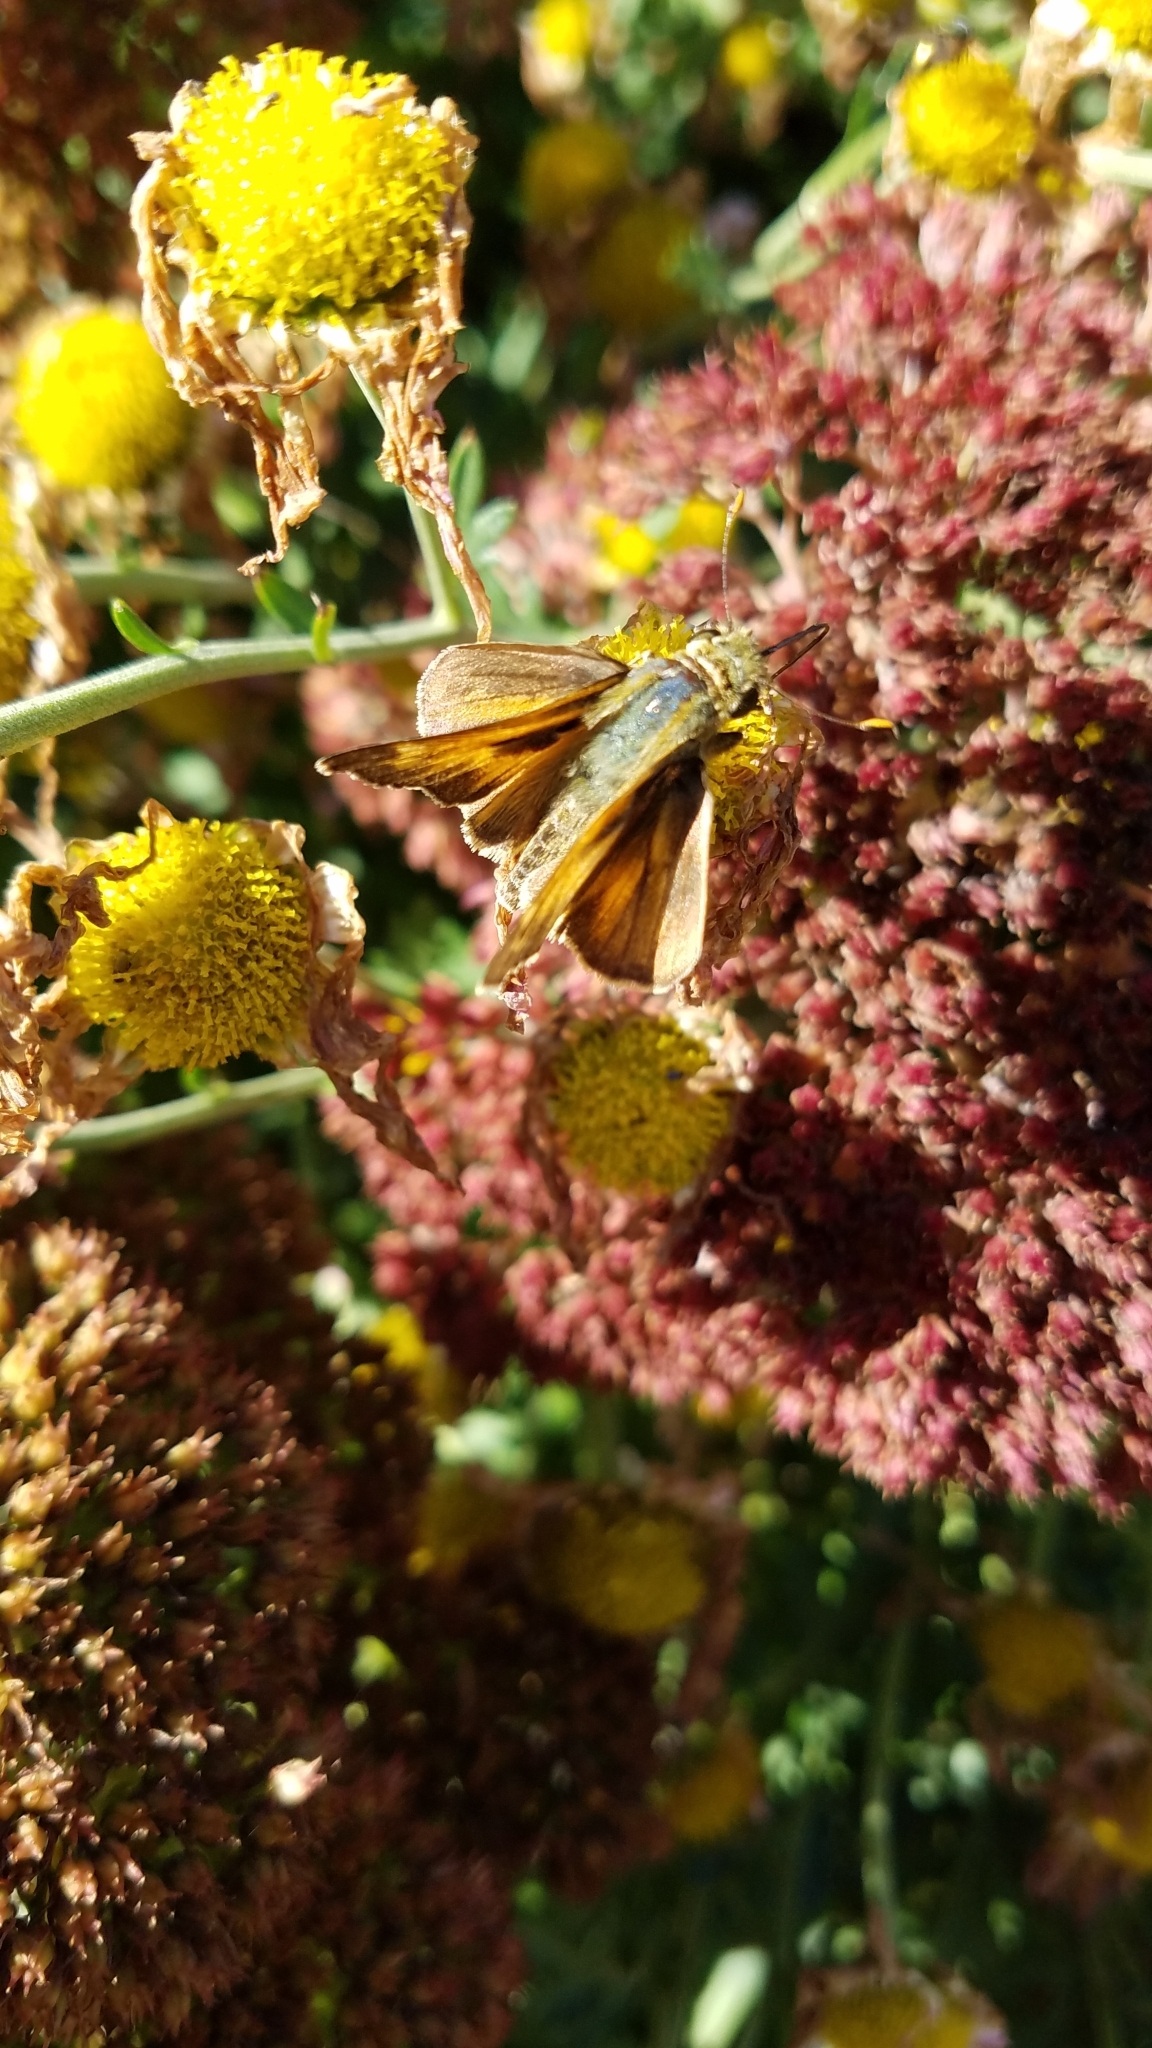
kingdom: Animalia
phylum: Arthropoda
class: Insecta
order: Lepidoptera
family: Hesperiidae
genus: Atalopedes
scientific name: Atalopedes
